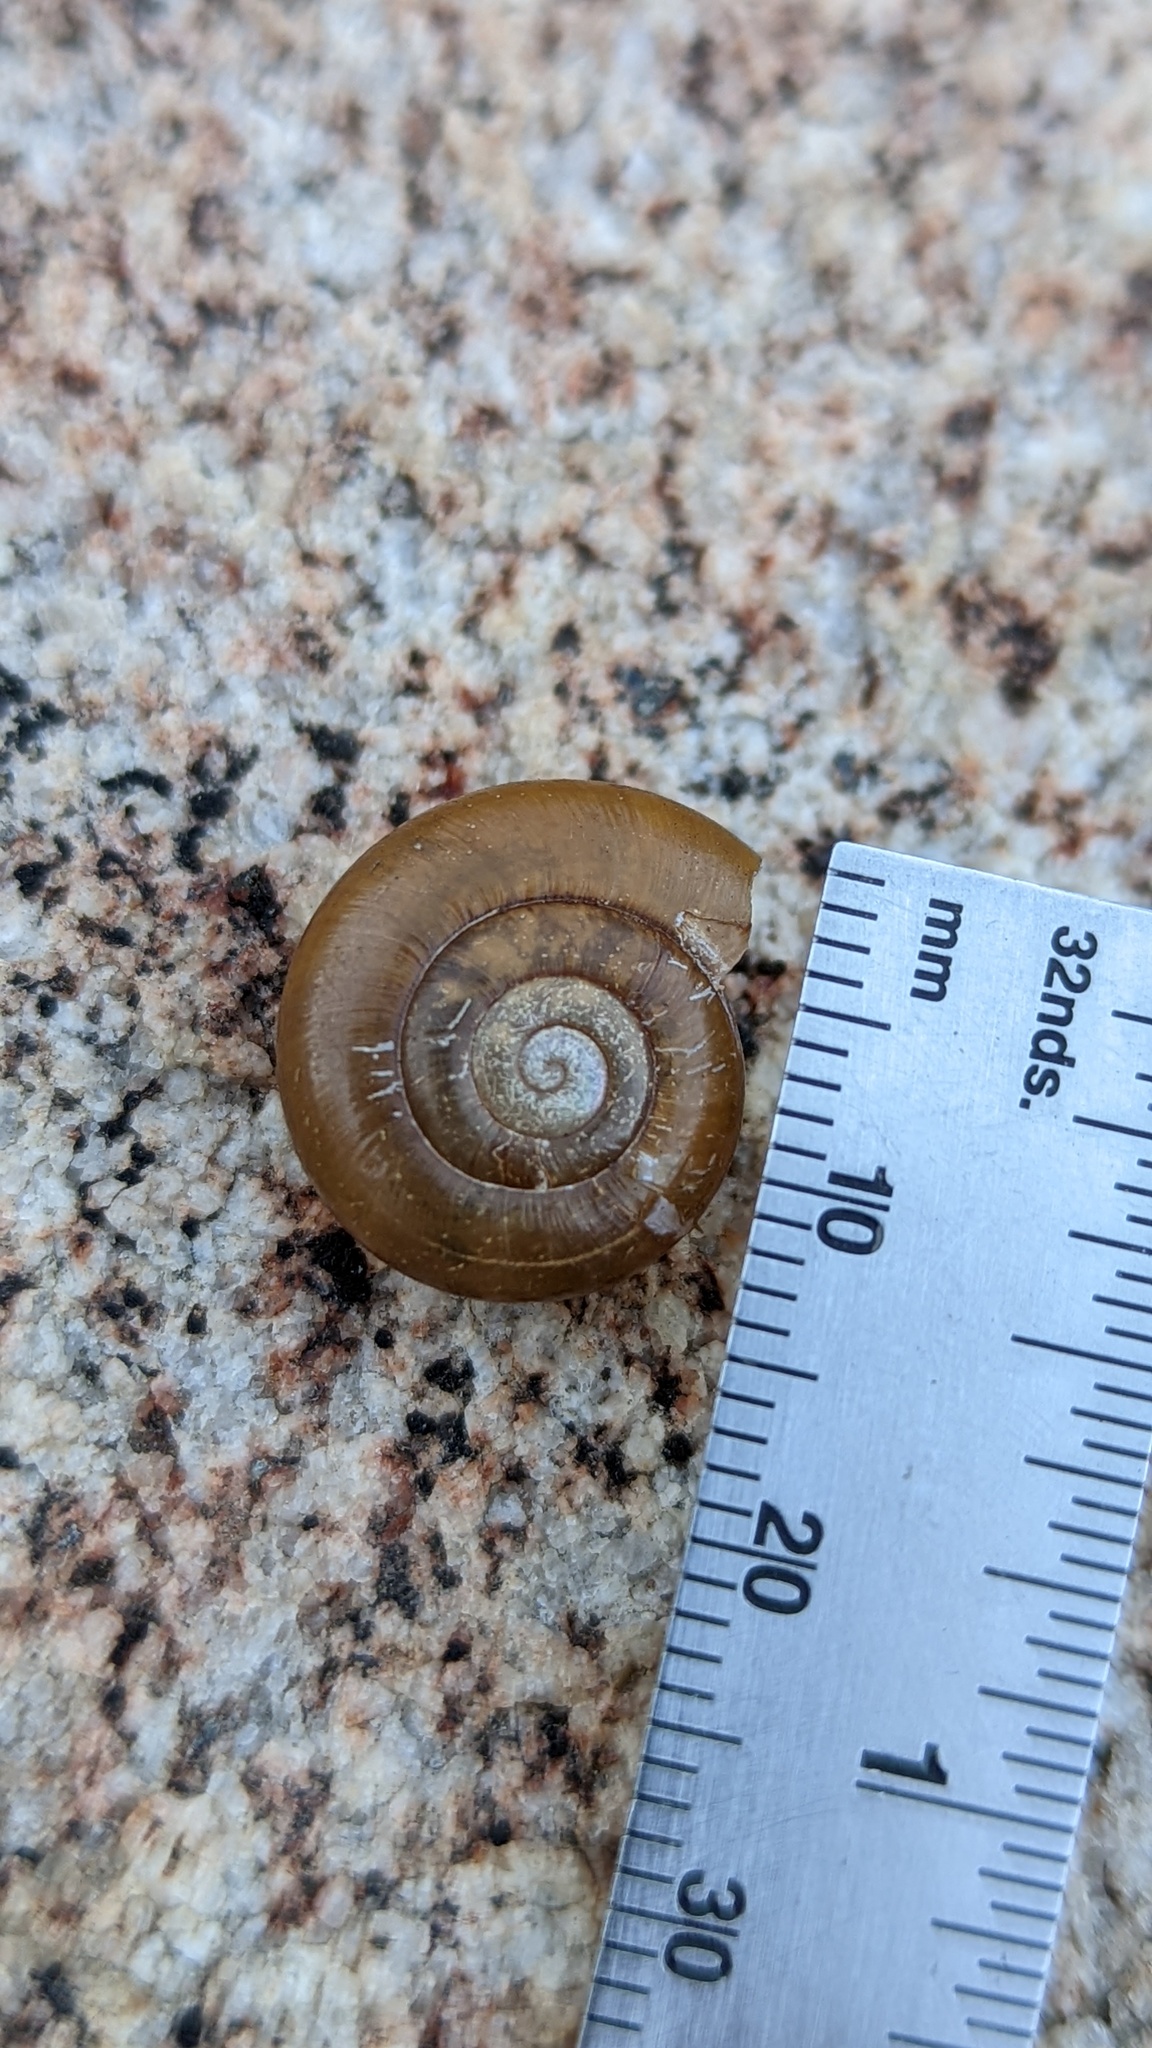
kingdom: Animalia
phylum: Mollusca
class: Gastropoda
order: Stylommatophora
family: Megomphicidae
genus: Glyptostoma
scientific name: Glyptostoma newberryanum
